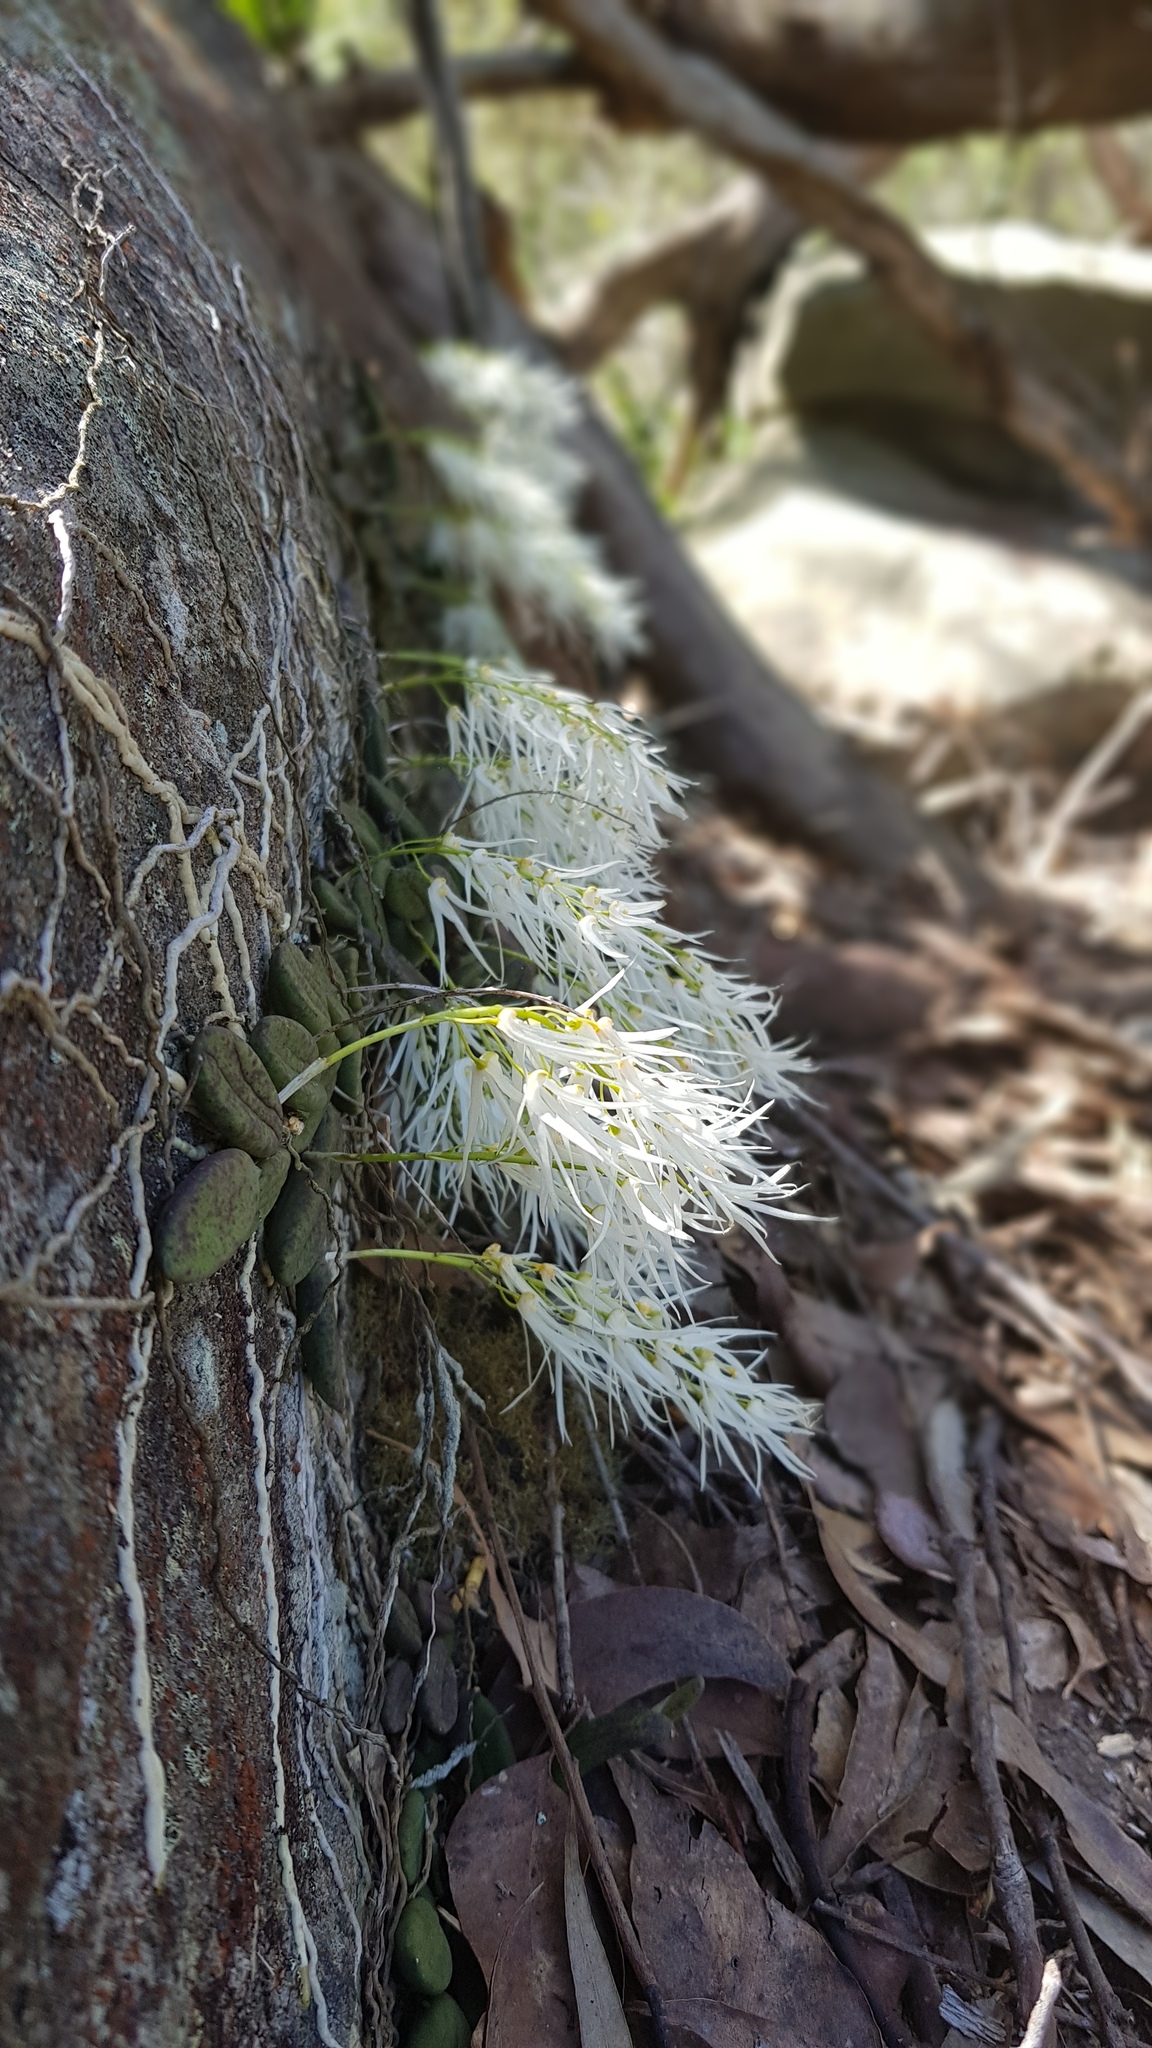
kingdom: Plantae
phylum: Tracheophyta
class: Liliopsida
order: Asparagales
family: Orchidaceae
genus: Dendrobium
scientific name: Dendrobium linguiforme
